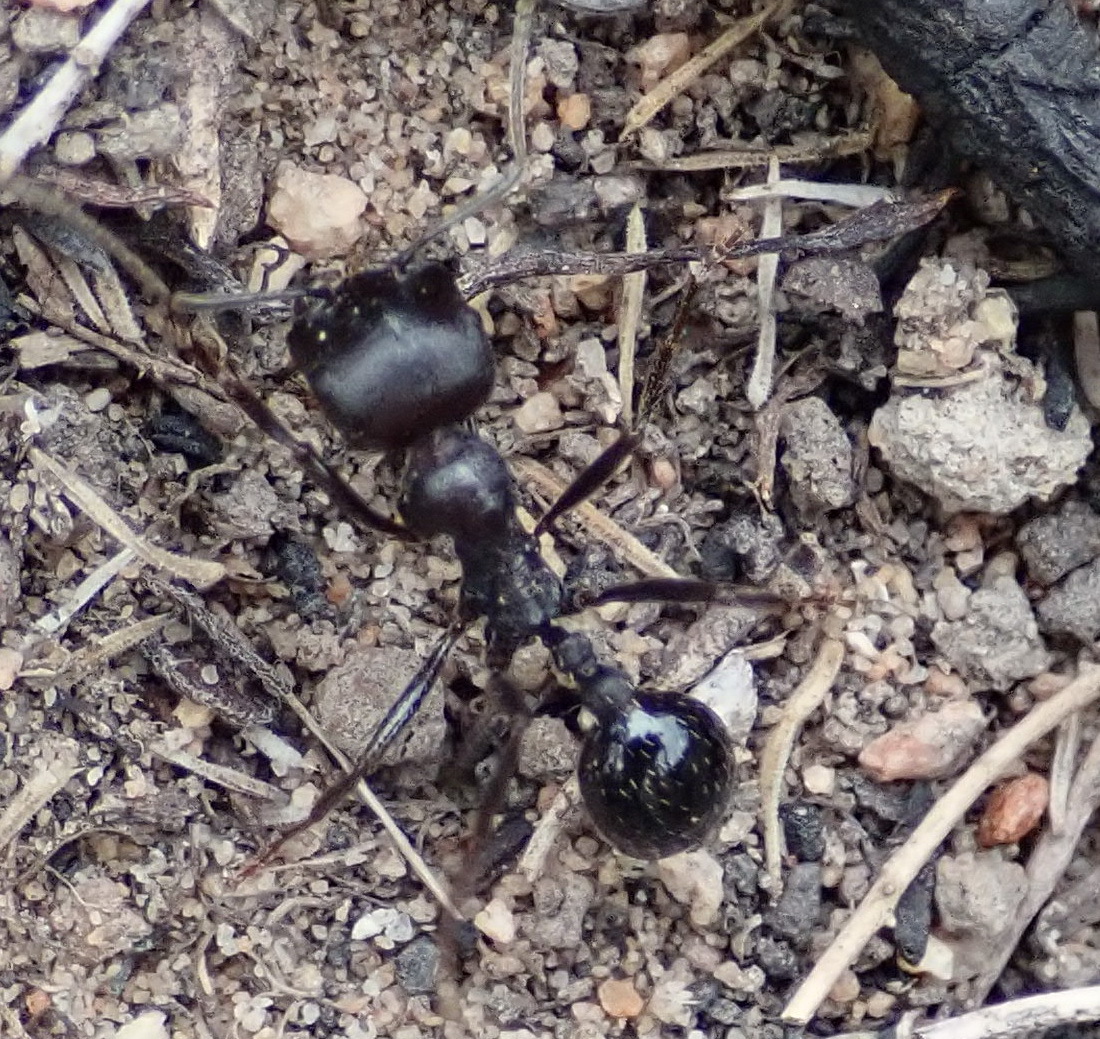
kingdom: Animalia
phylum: Arthropoda
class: Insecta
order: Hymenoptera
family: Formicidae
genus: Messor
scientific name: Messor capensis
